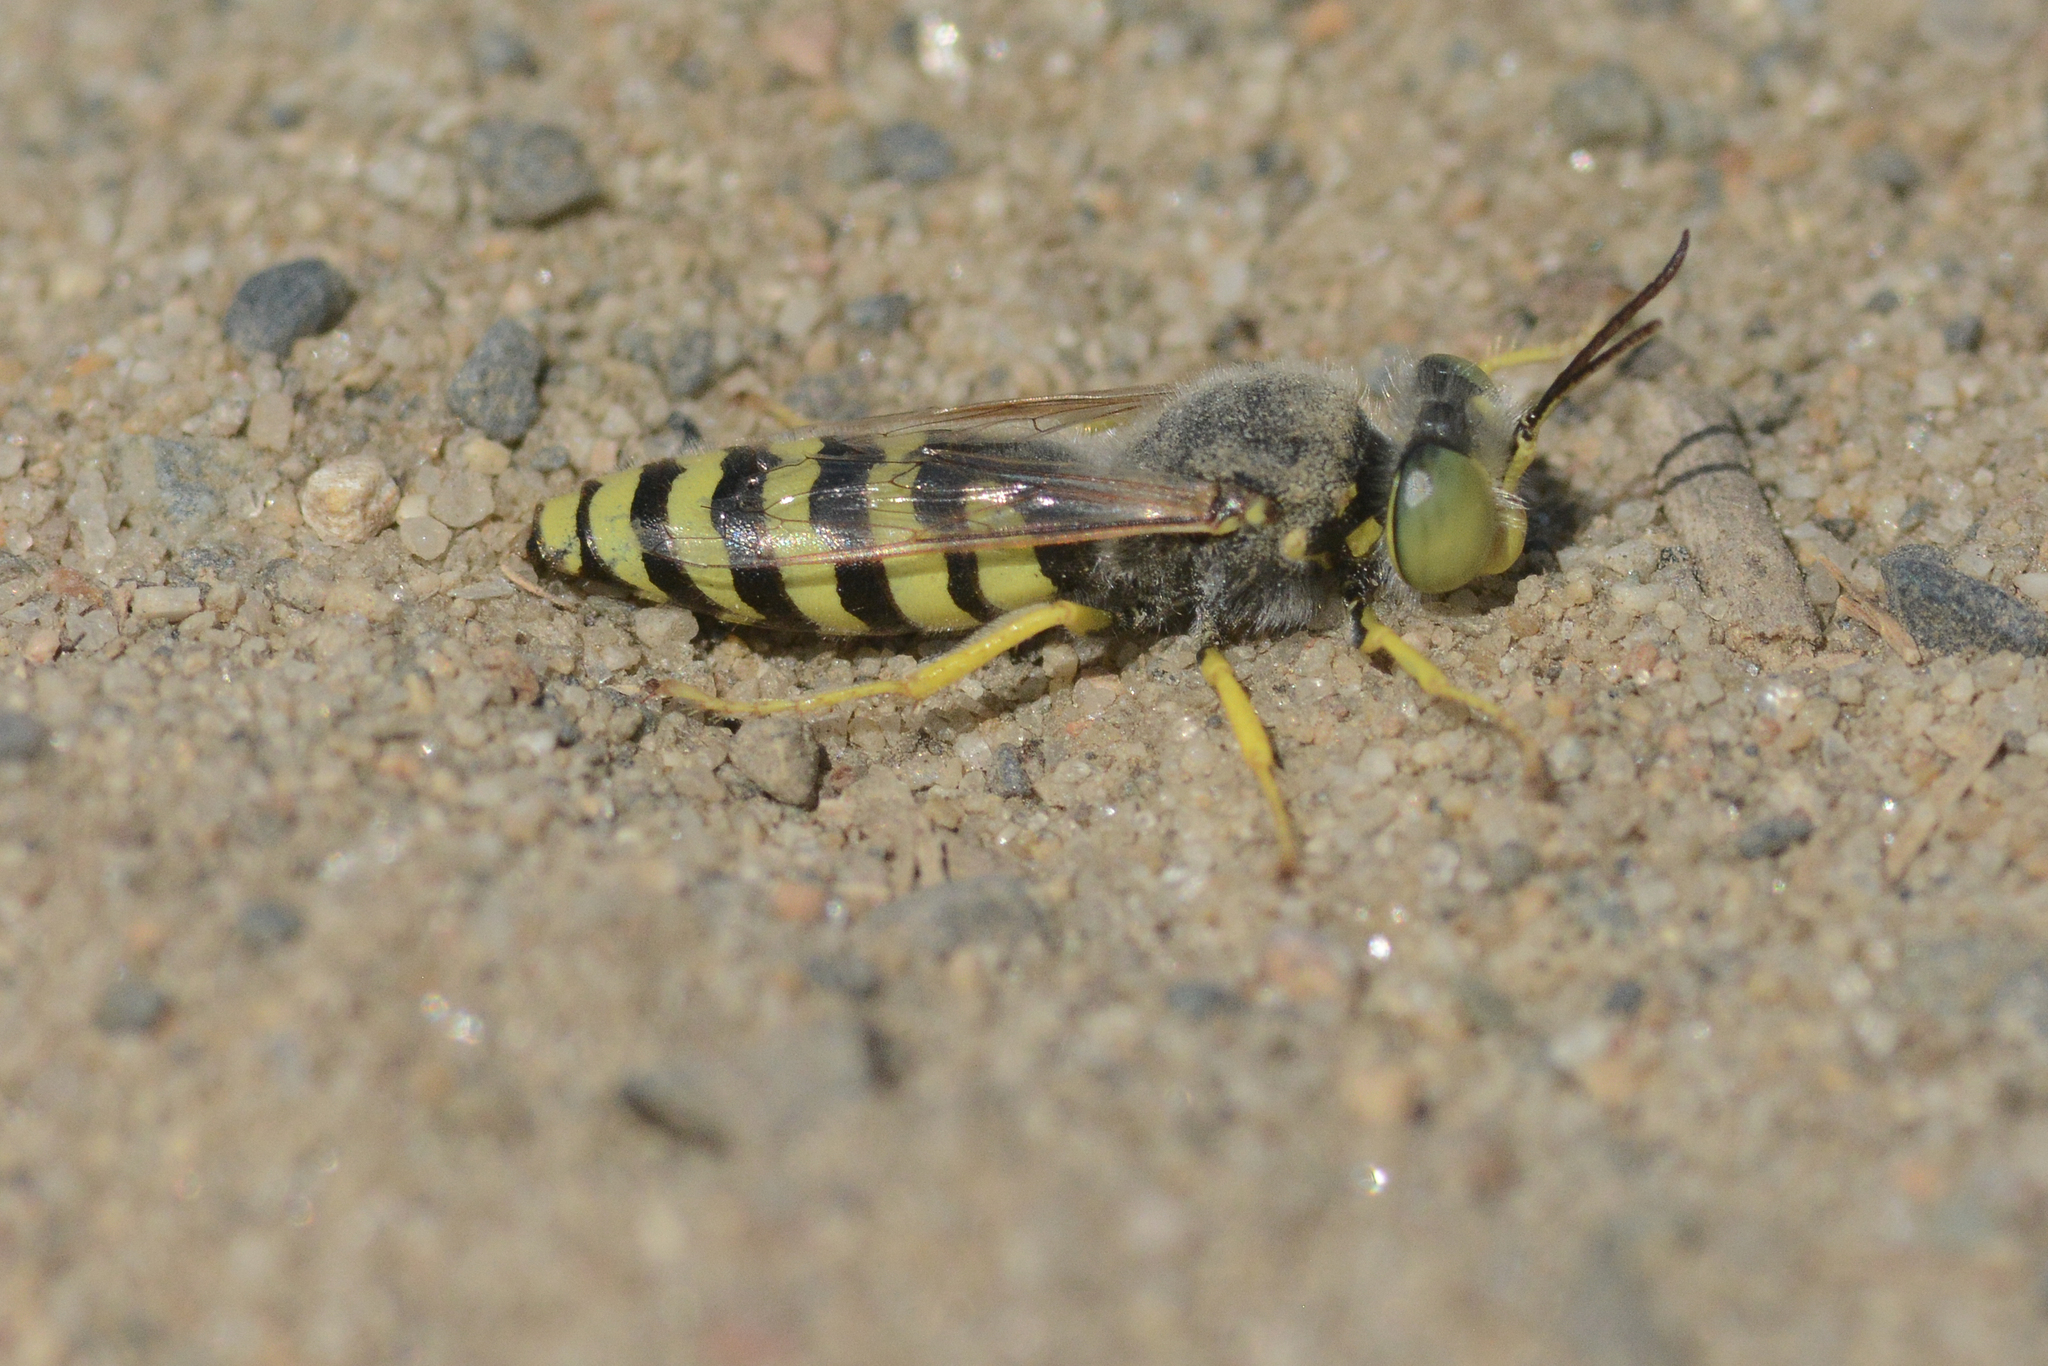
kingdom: Animalia
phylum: Arthropoda
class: Insecta
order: Hymenoptera
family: Crabronidae
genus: Bembix
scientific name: Bembix americana
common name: American sand wasp
